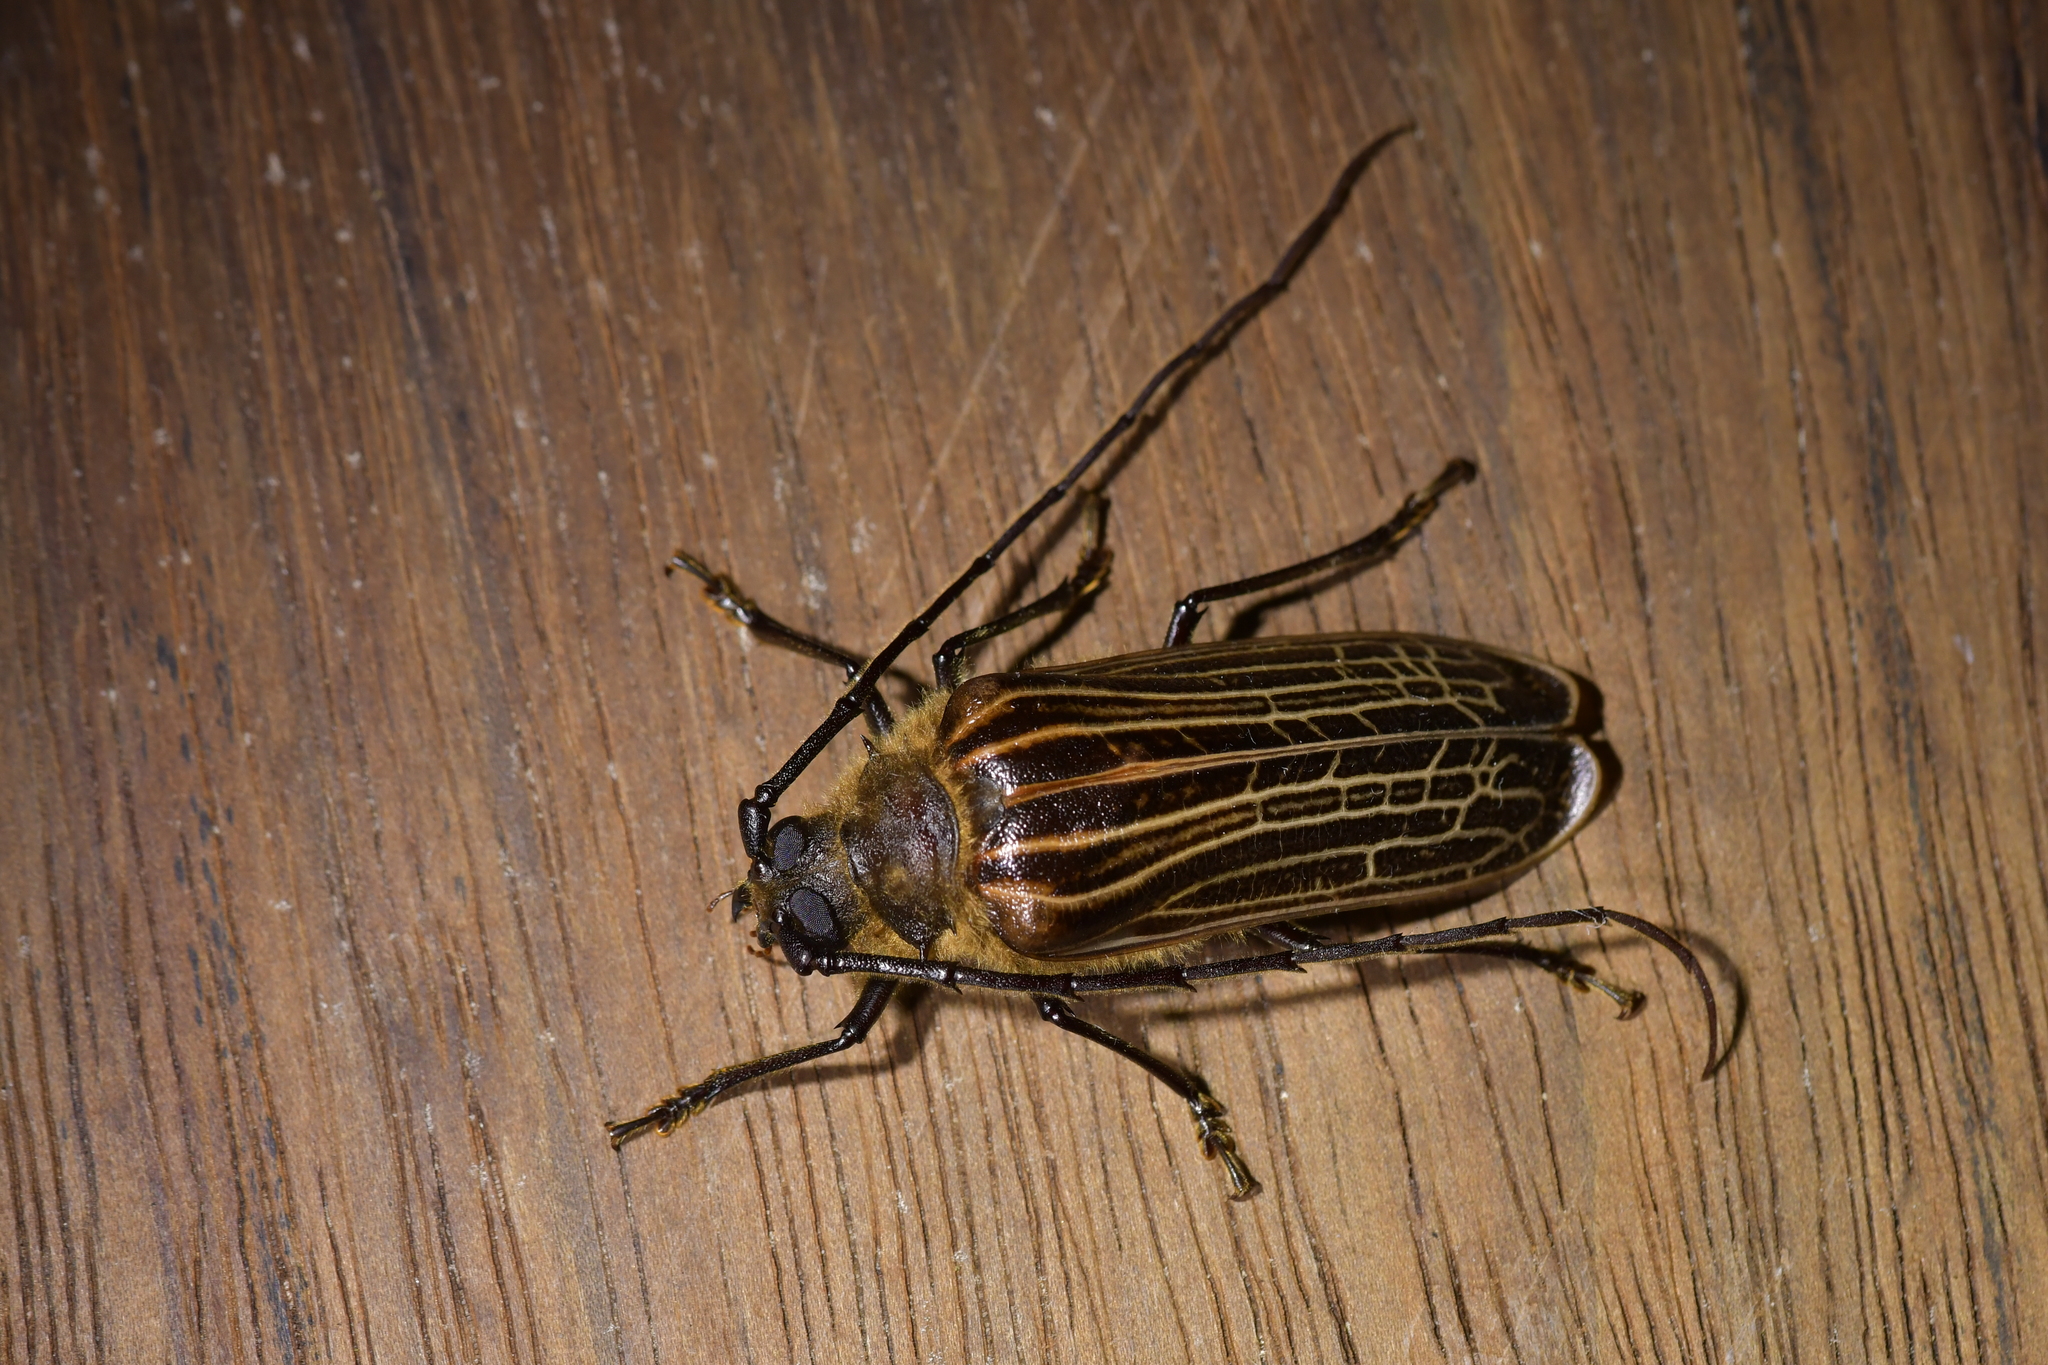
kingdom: Animalia
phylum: Arthropoda
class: Insecta
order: Coleoptera
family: Cerambycidae
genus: Prionoplus
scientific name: Prionoplus reticularis
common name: Huhu beetle
